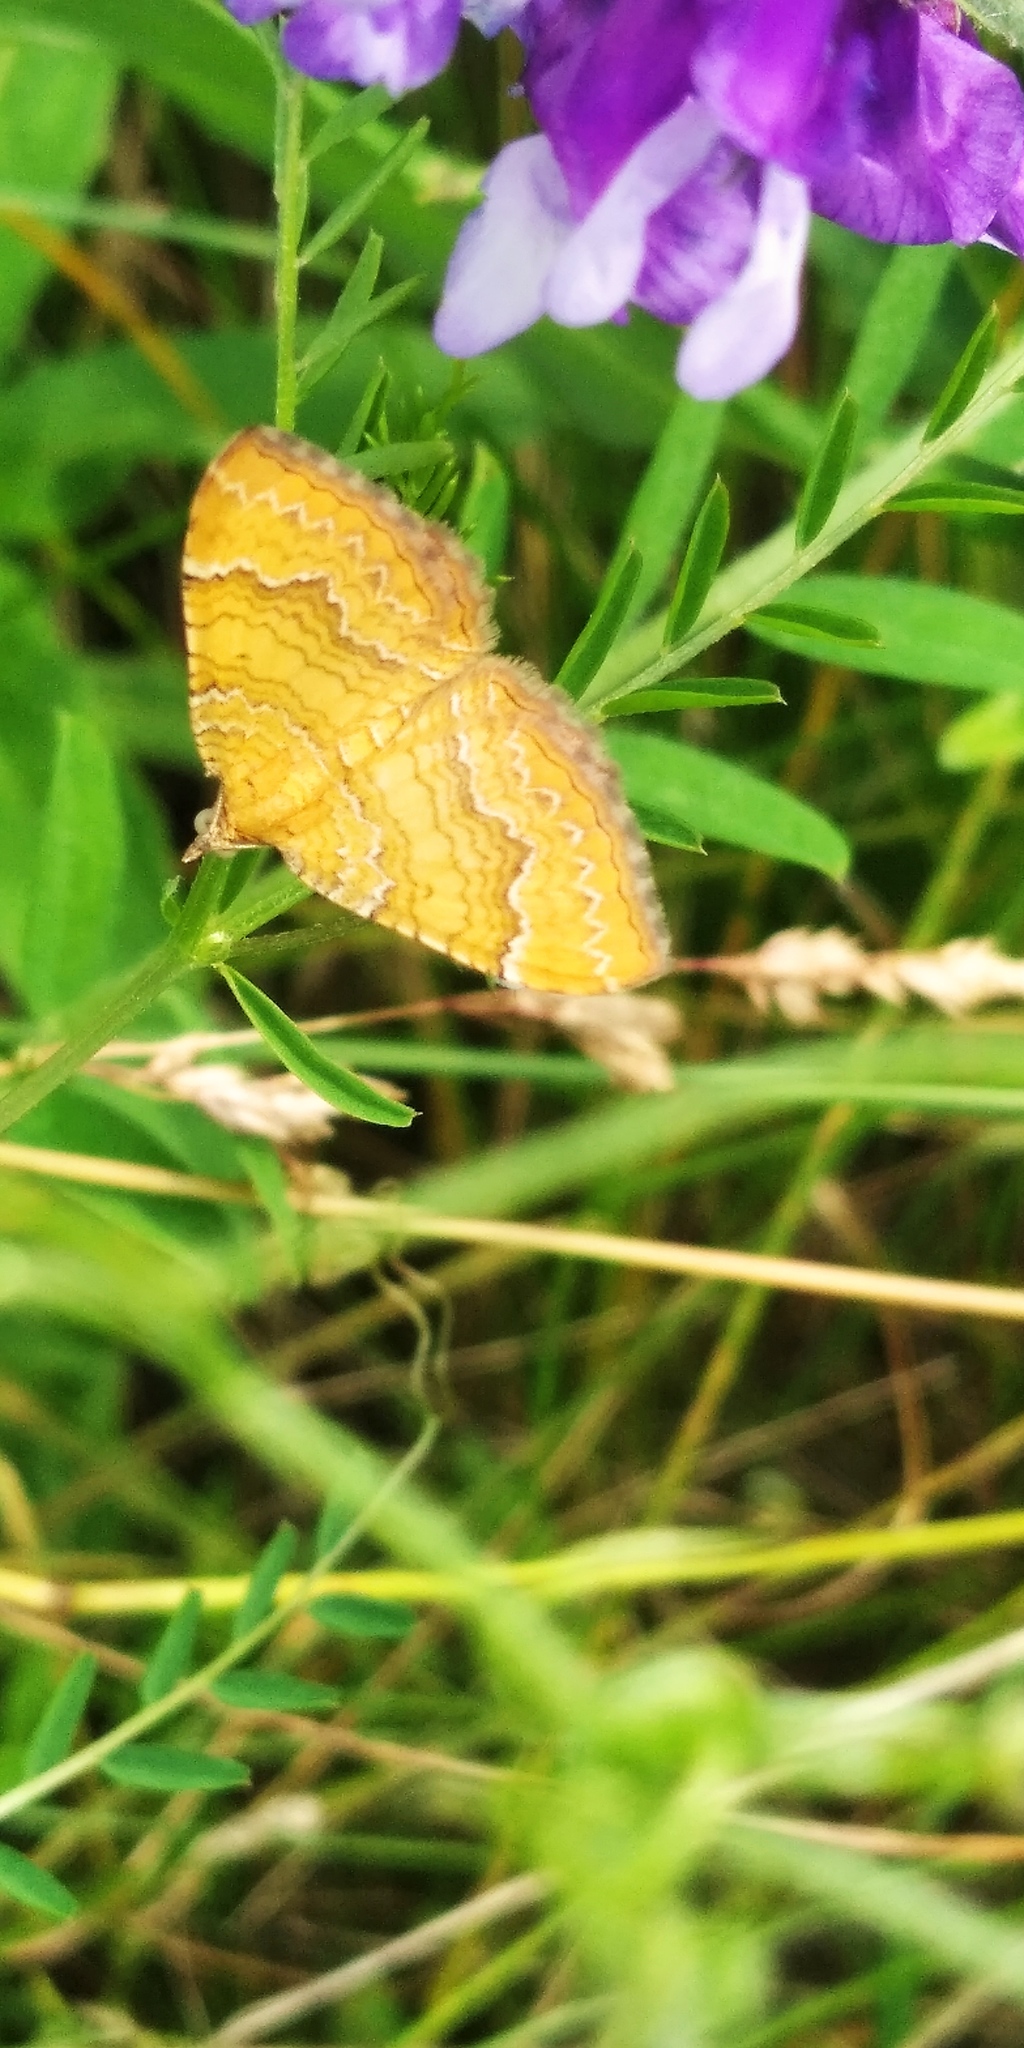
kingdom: Animalia
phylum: Arthropoda
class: Insecta
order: Lepidoptera
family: Geometridae
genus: Camptogramma
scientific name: Camptogramma bilineata
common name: Yellow shell
